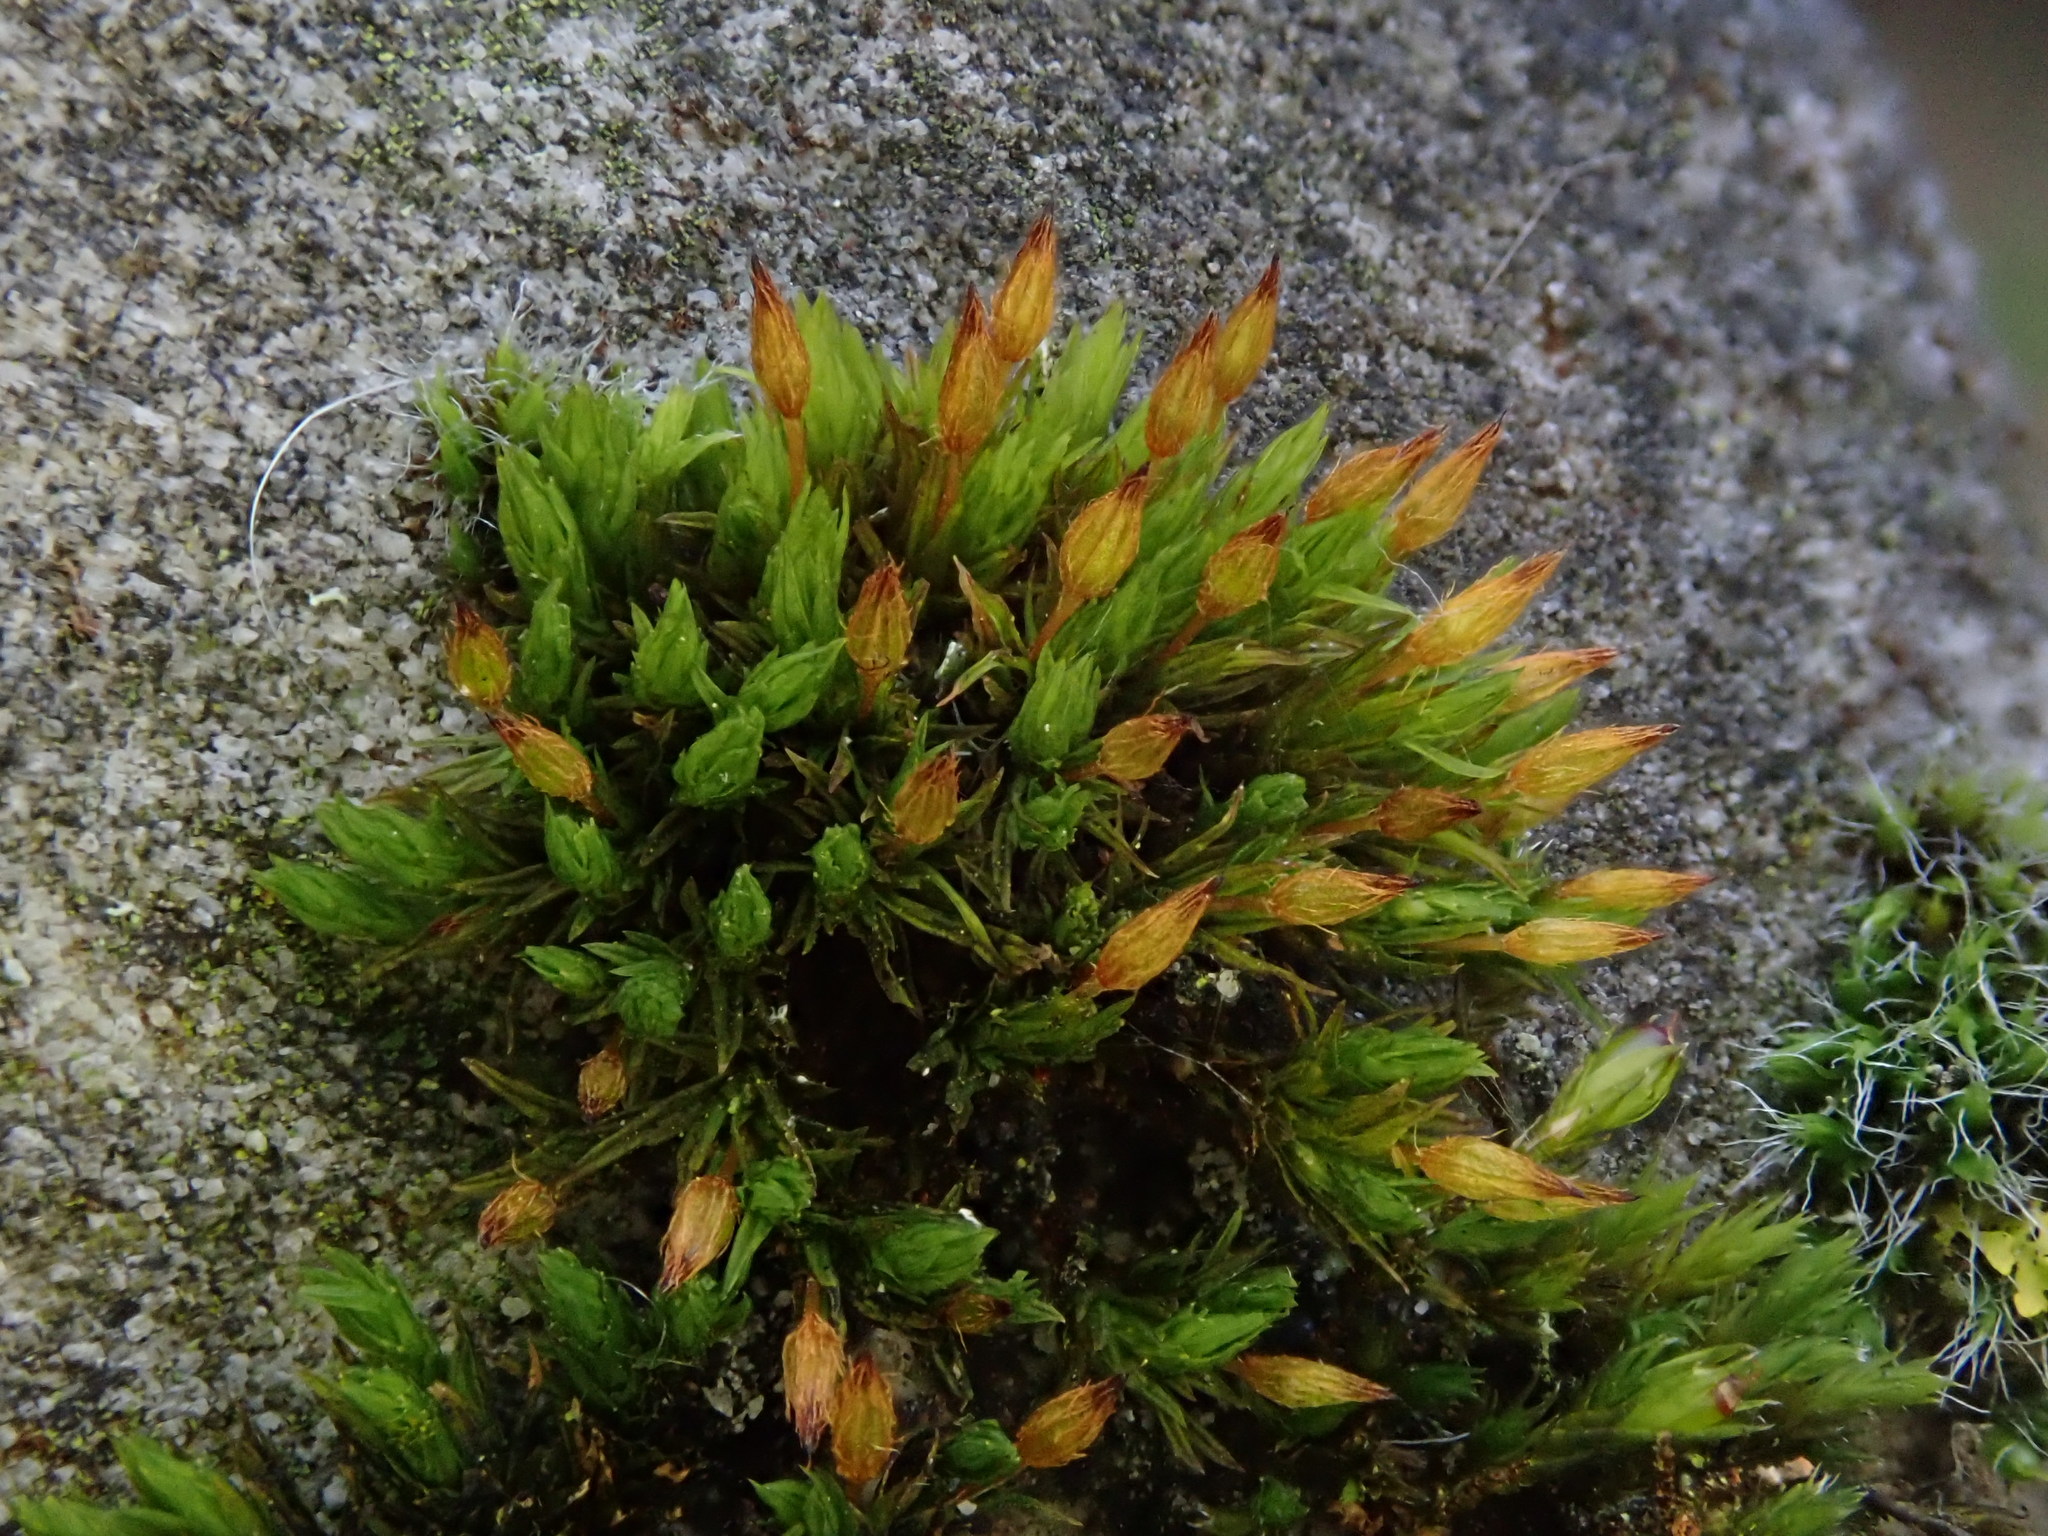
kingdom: Plantae
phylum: Bryophyta
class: Bryopsida
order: Orthotrichales
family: Orthotrichaceae
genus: Orthotrichum
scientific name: Orthotrichum anomalum
